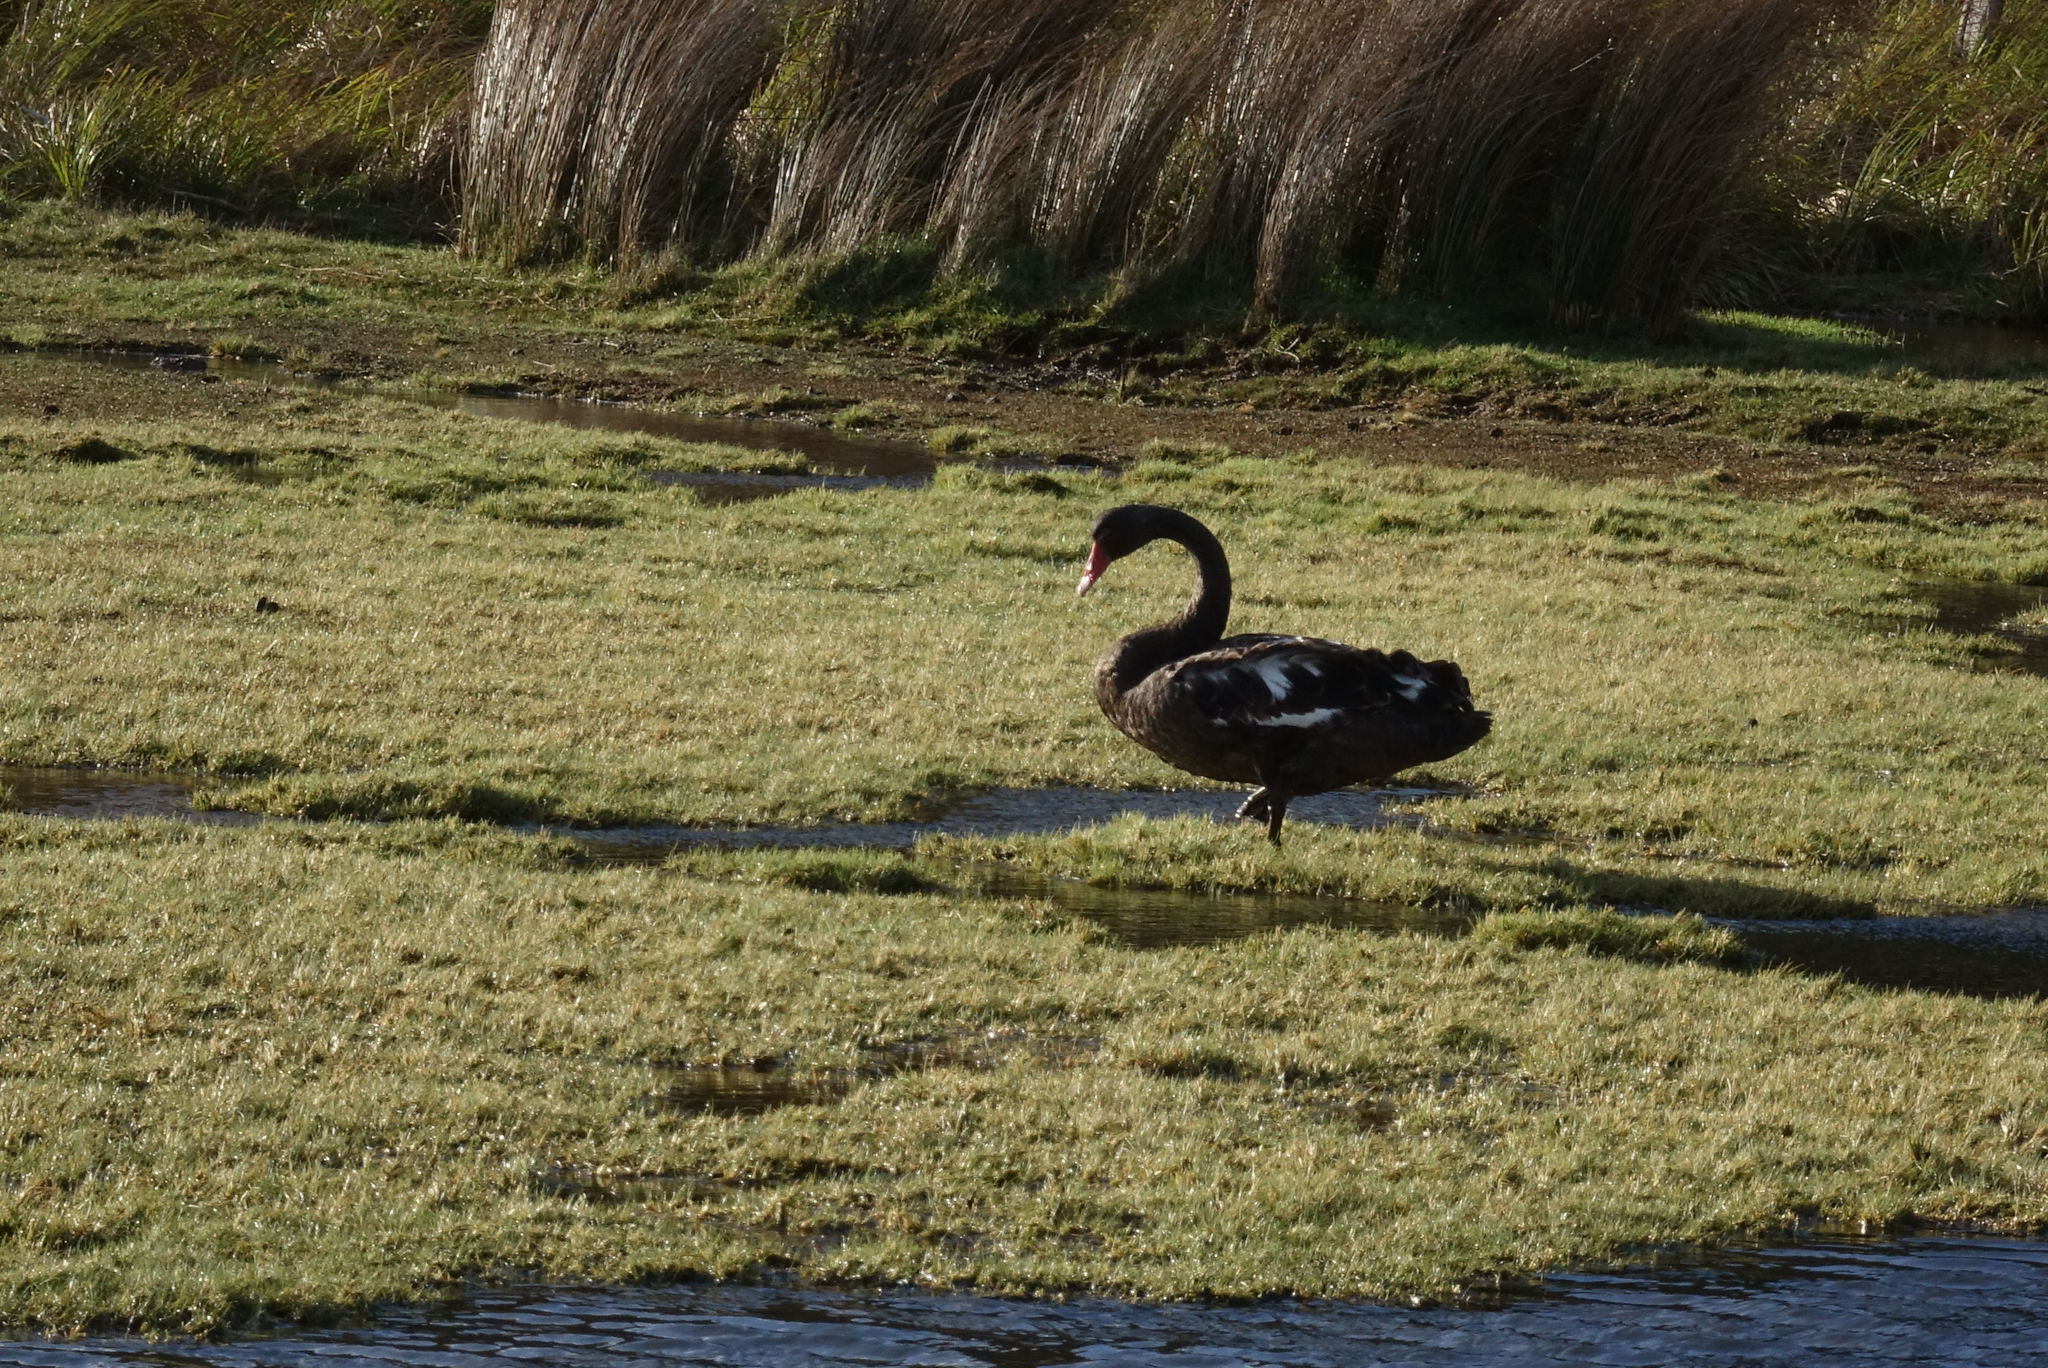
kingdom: Animalia
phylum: Chordata
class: Aves
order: Anseriformes
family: Anatidae
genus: Cygnus
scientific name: Cygnus atratus
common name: Black swan
